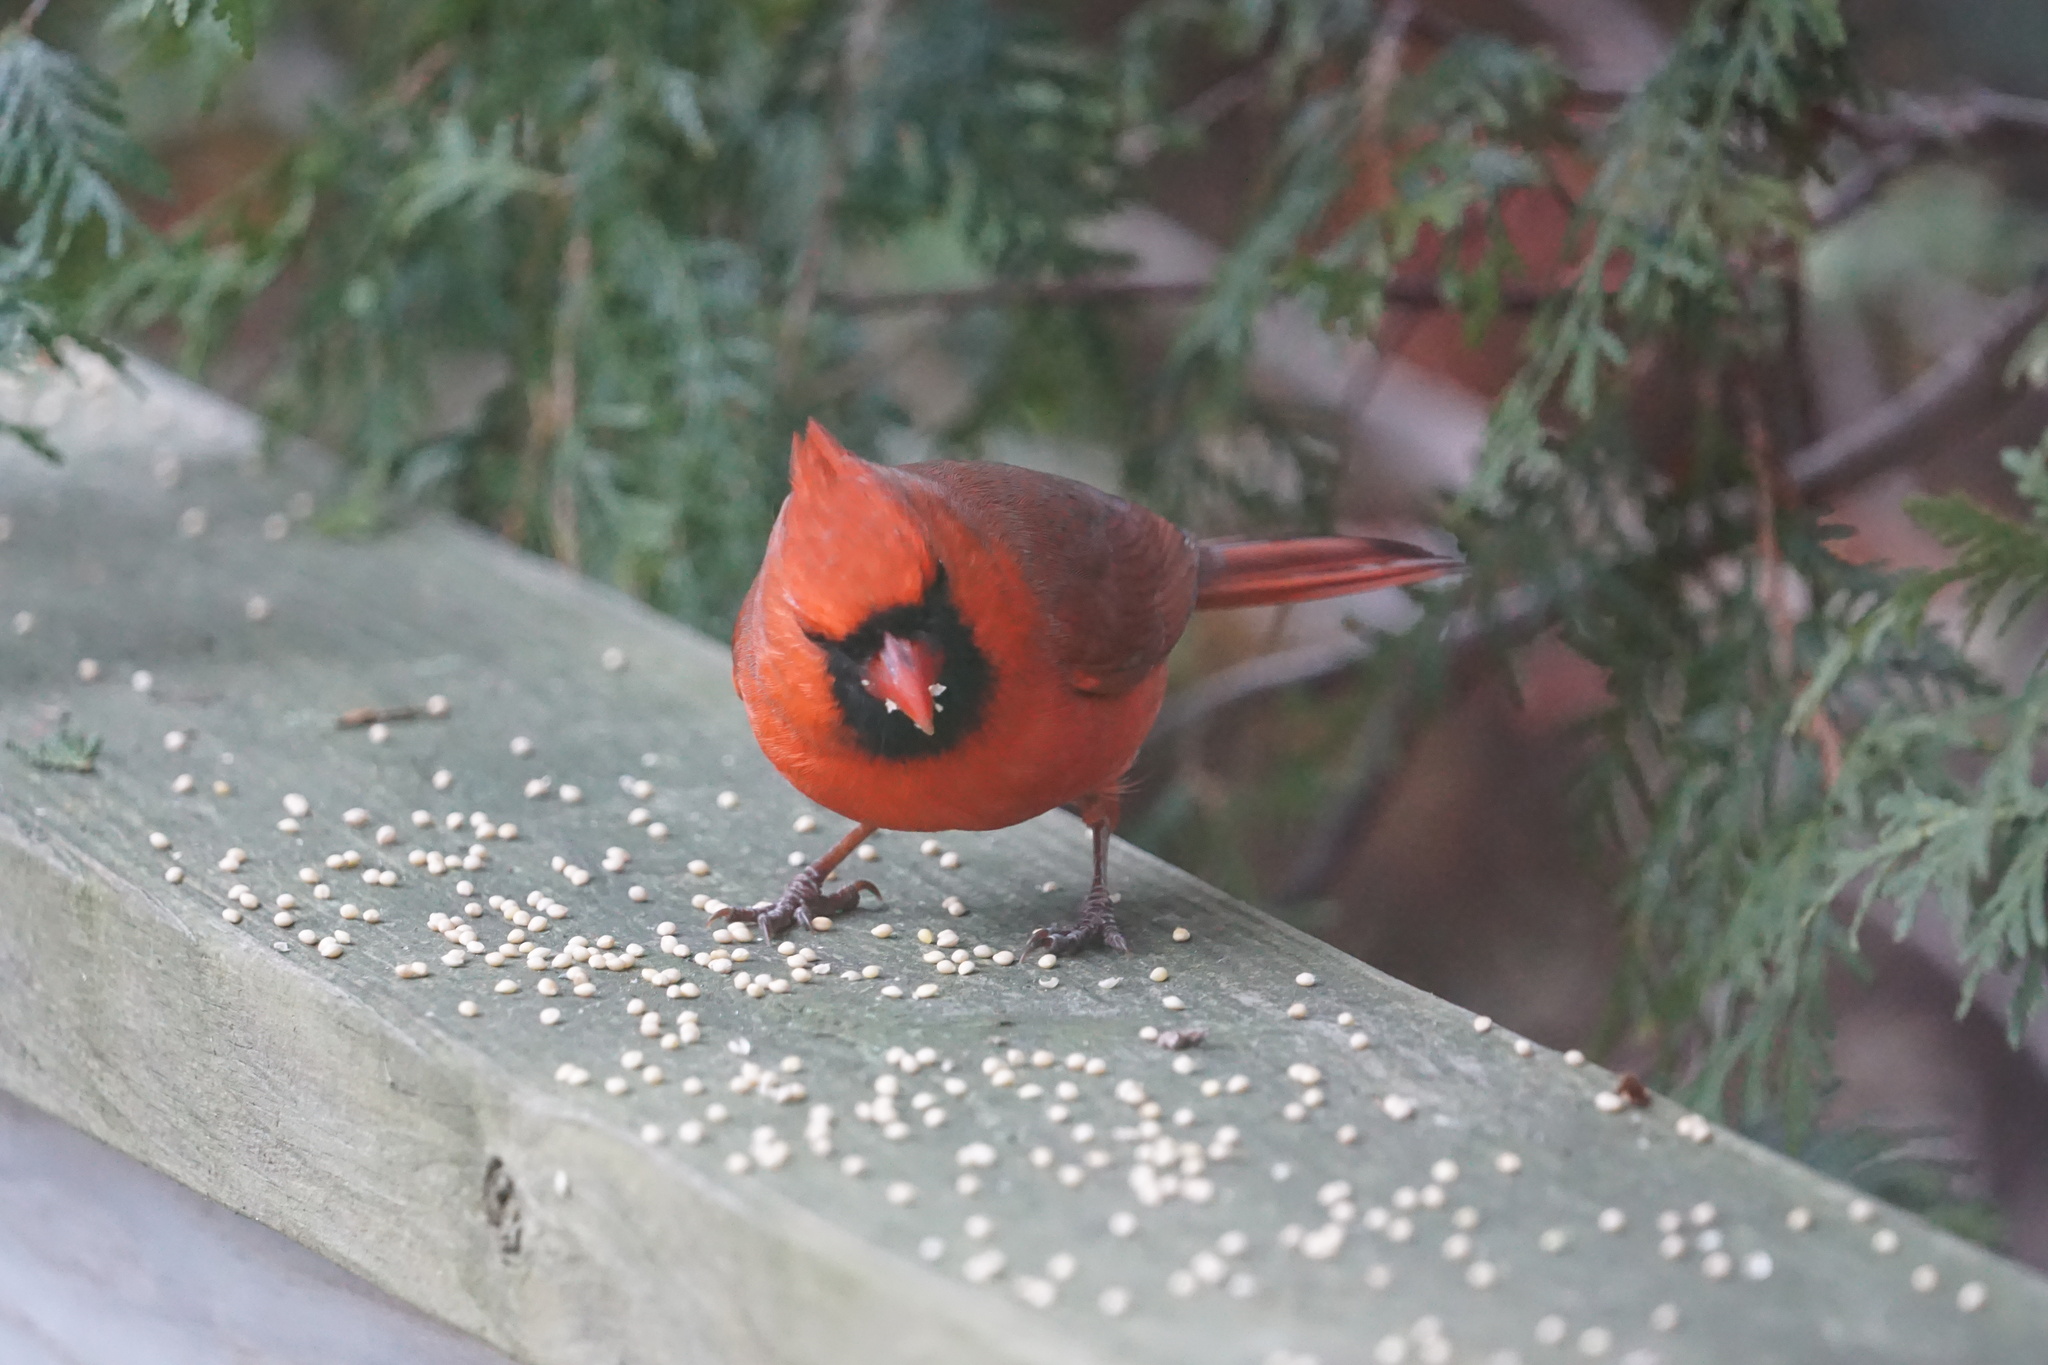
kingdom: Animalia
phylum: Chordata
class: Aves
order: Passeriformes
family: Cardinalidae
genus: Cardinalis
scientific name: Cardinalis cardinalis
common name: Northern cardinal
